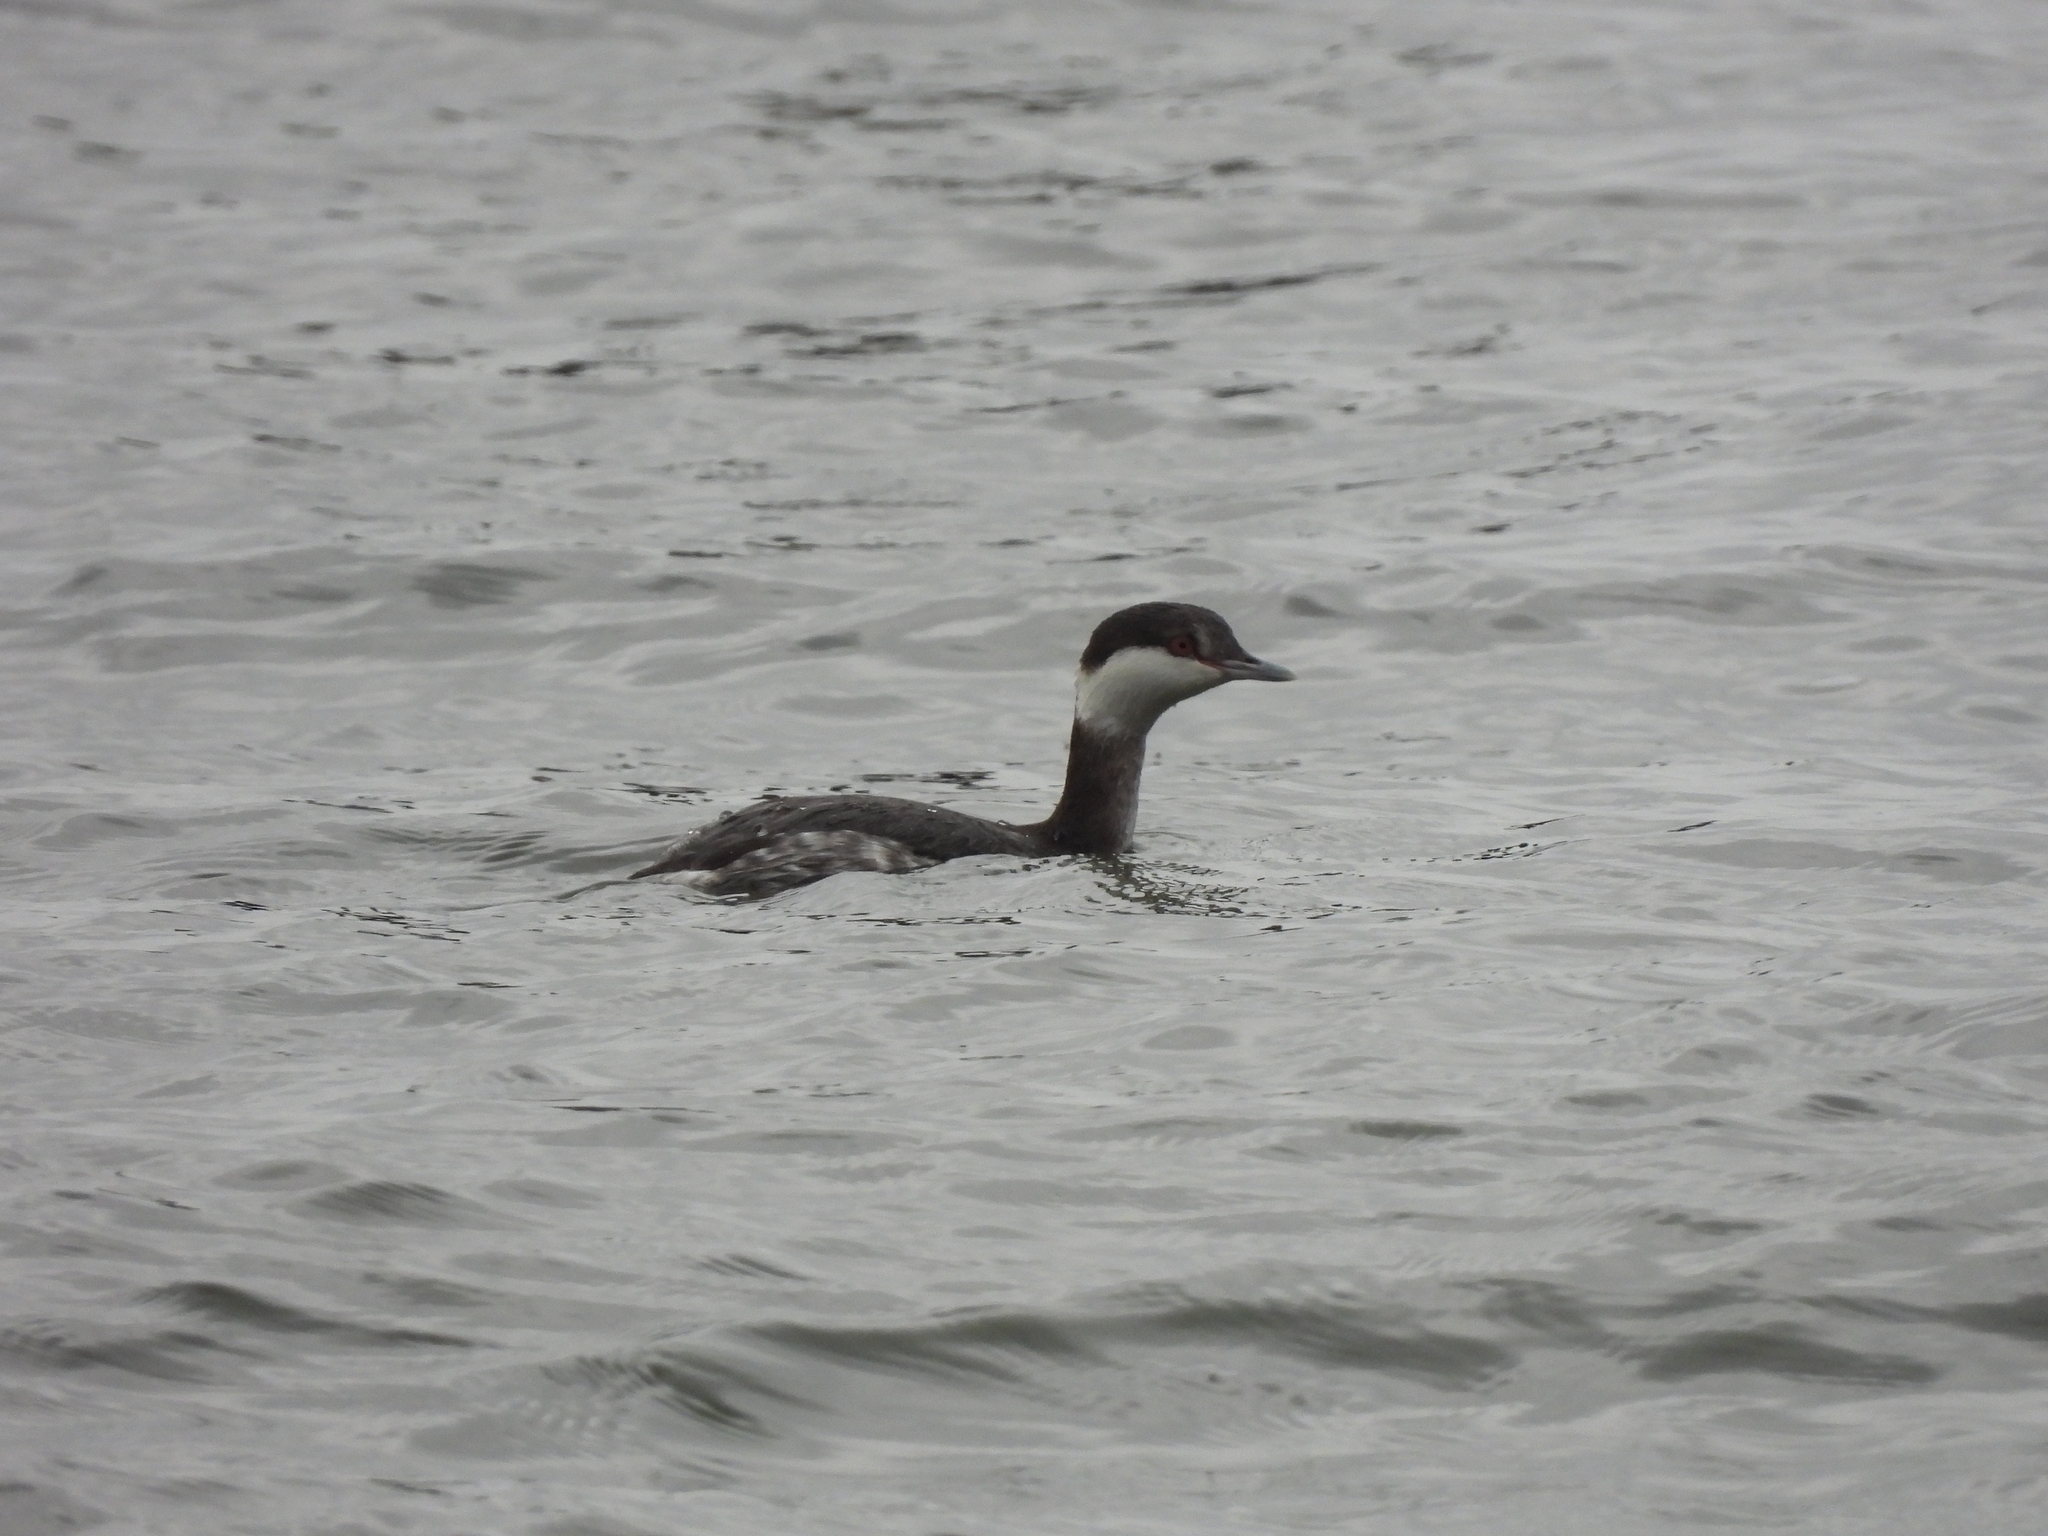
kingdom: Animalia
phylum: Chordata
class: Aves
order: Podicipediformes
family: Podicipedidae
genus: Podiceps
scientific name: Podiceps auritus
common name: Horned grebe
